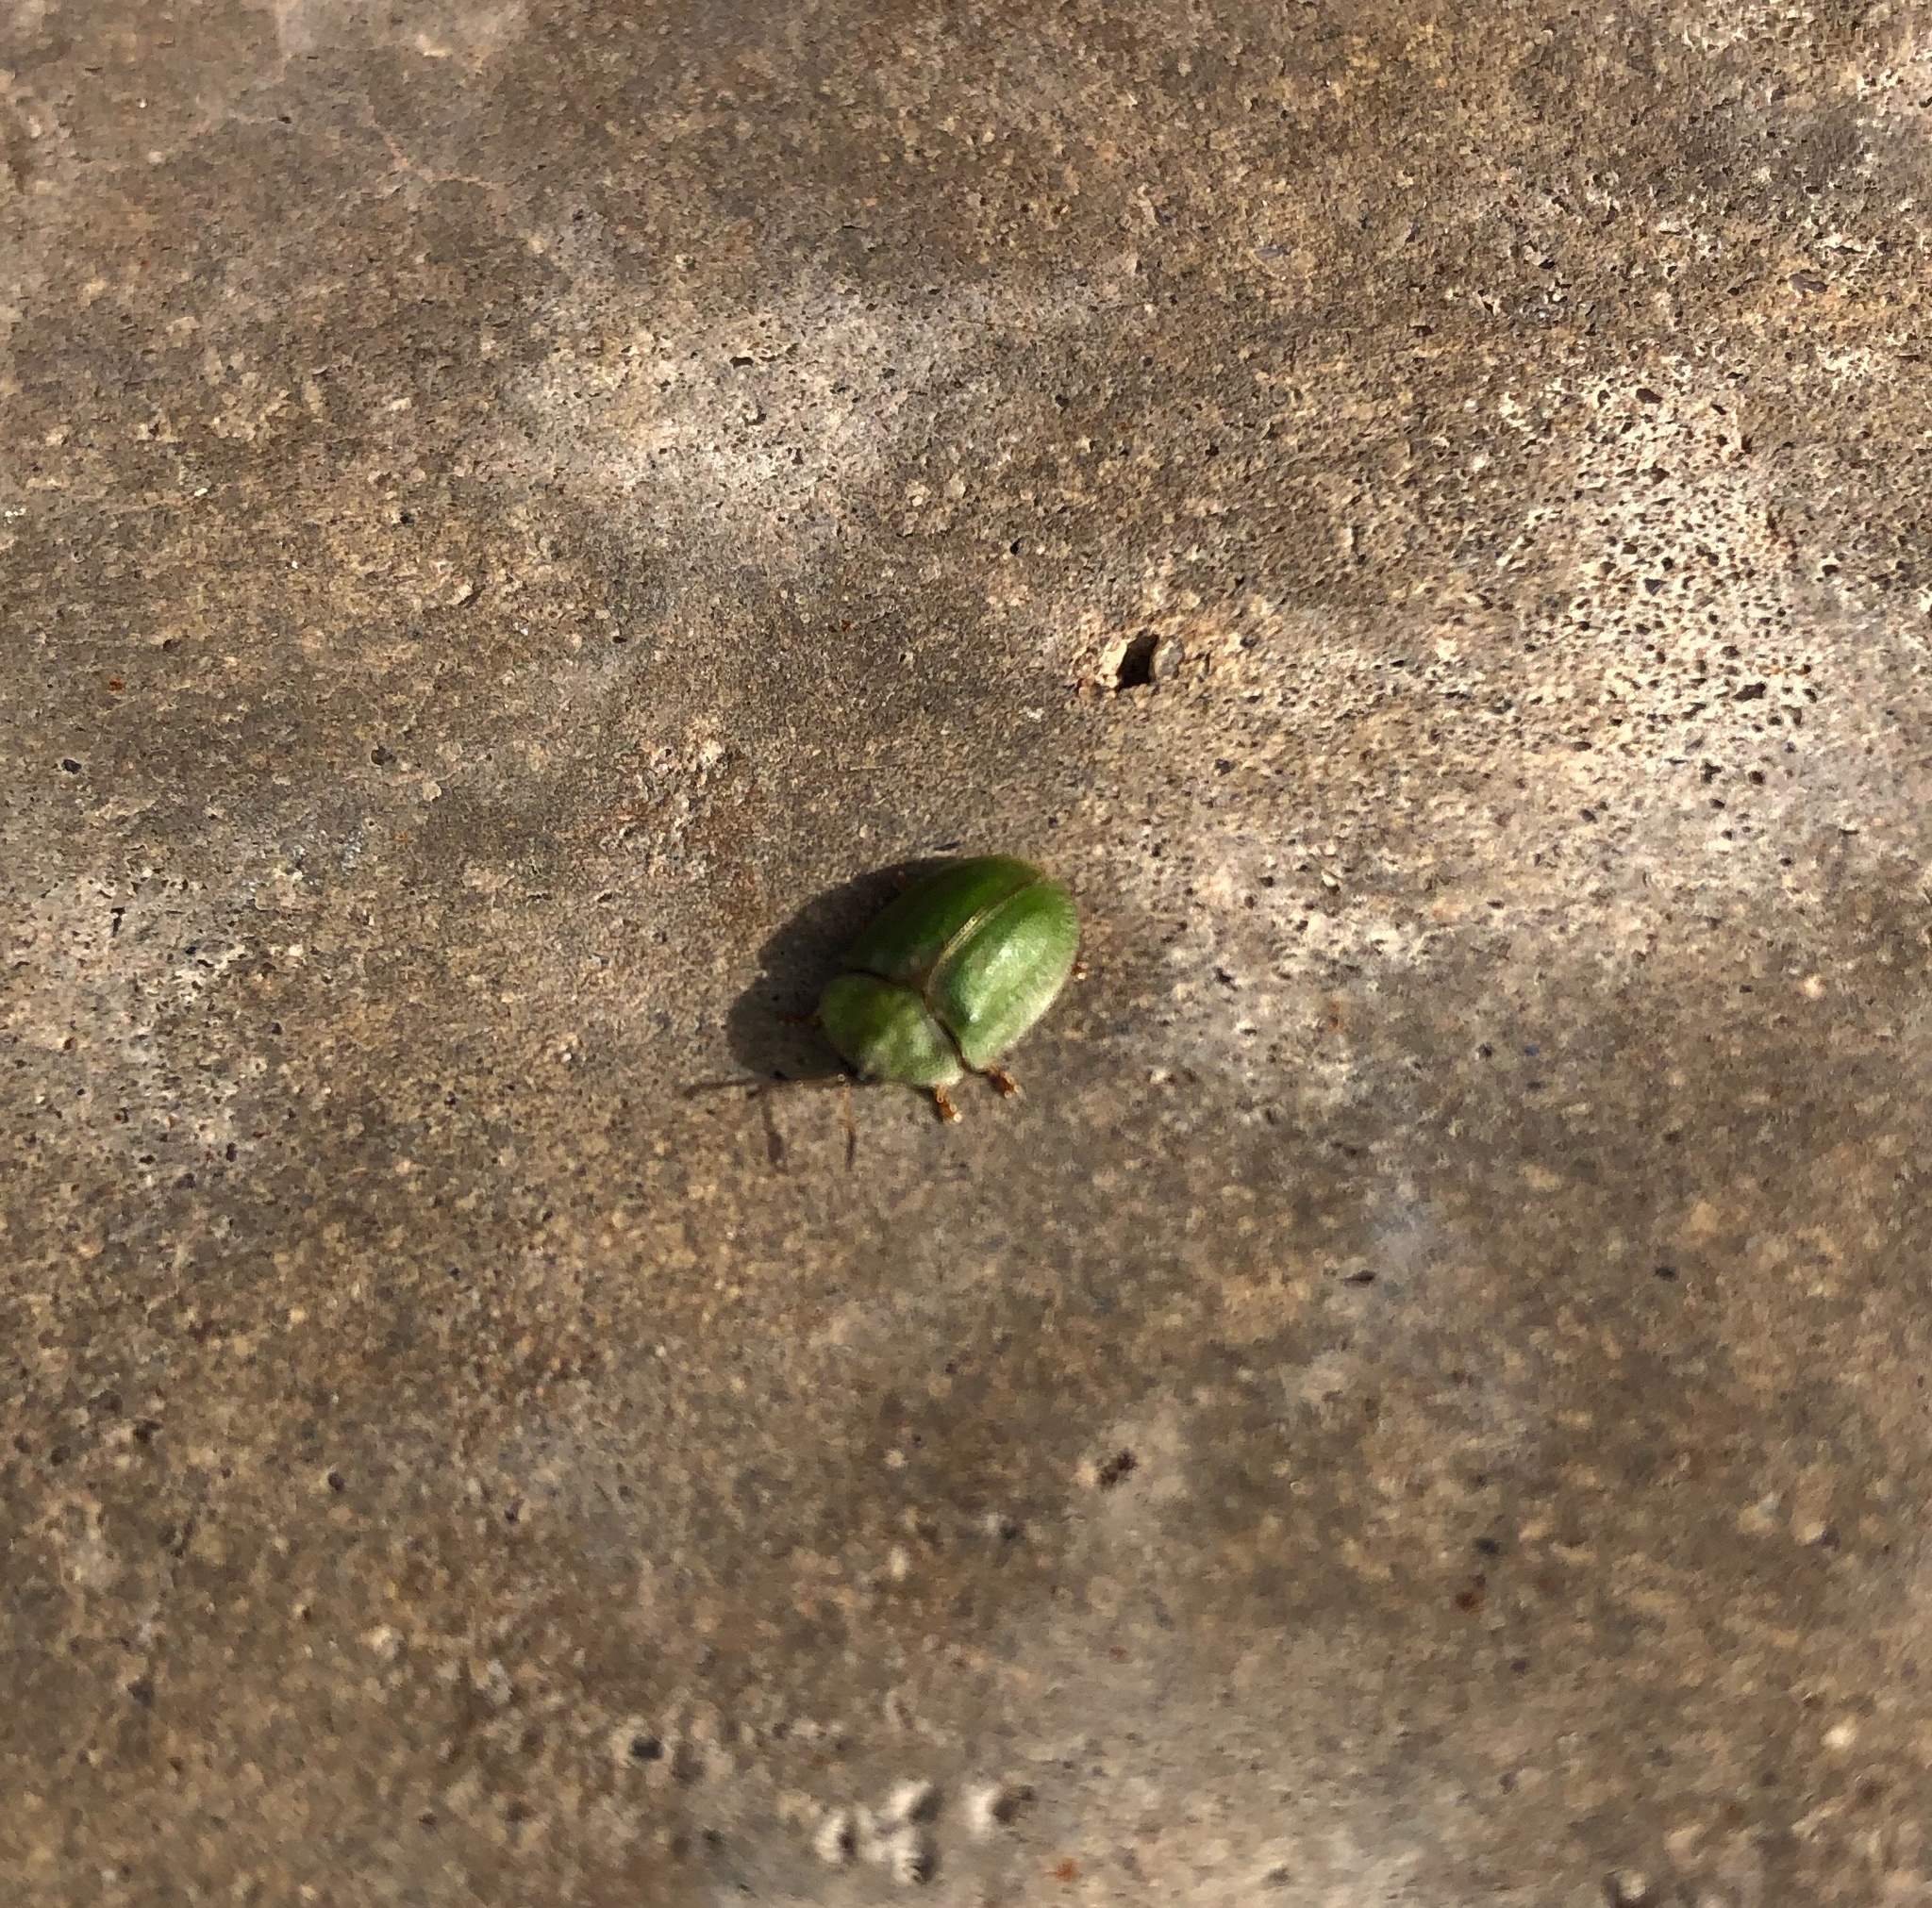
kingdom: Animalia
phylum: Arthropoda
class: Insecta
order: Coleoptera
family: Chrysomelidae
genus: Cassida
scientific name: Cassida rubiginosa
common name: Thistle tortoise beetle
